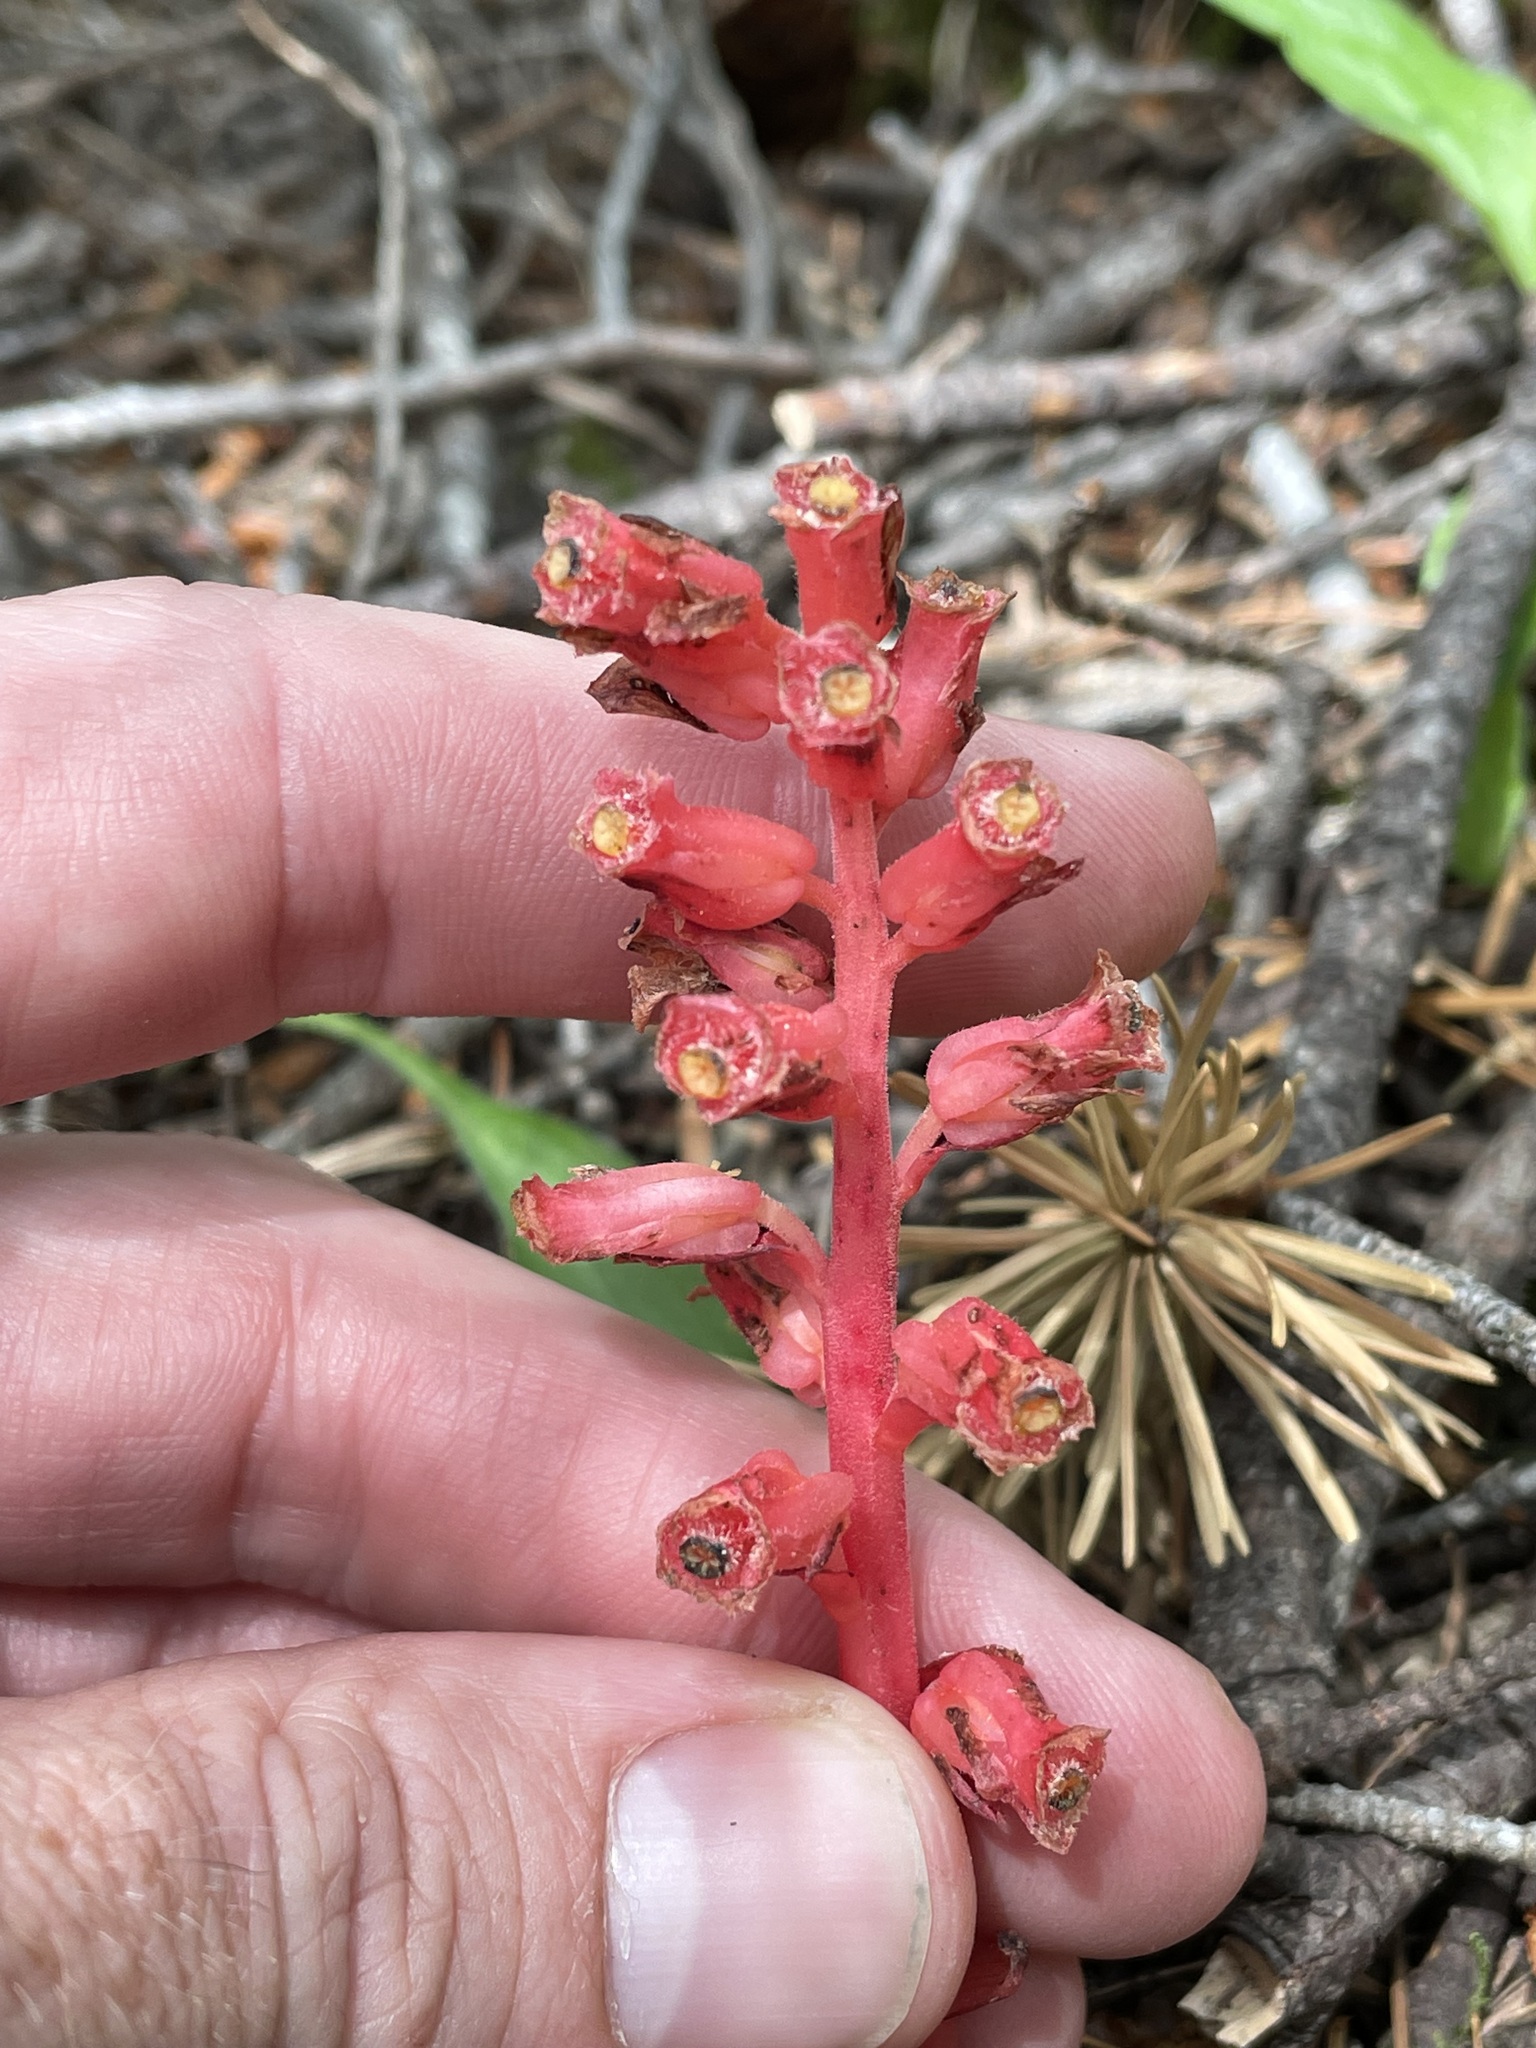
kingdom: Plantae
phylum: Tracheophyta
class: Magnoliopsida
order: Ericales
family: Ericaceae
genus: Hypopitys
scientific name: Hypopitys monotropa
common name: Yellow bird's-nest
